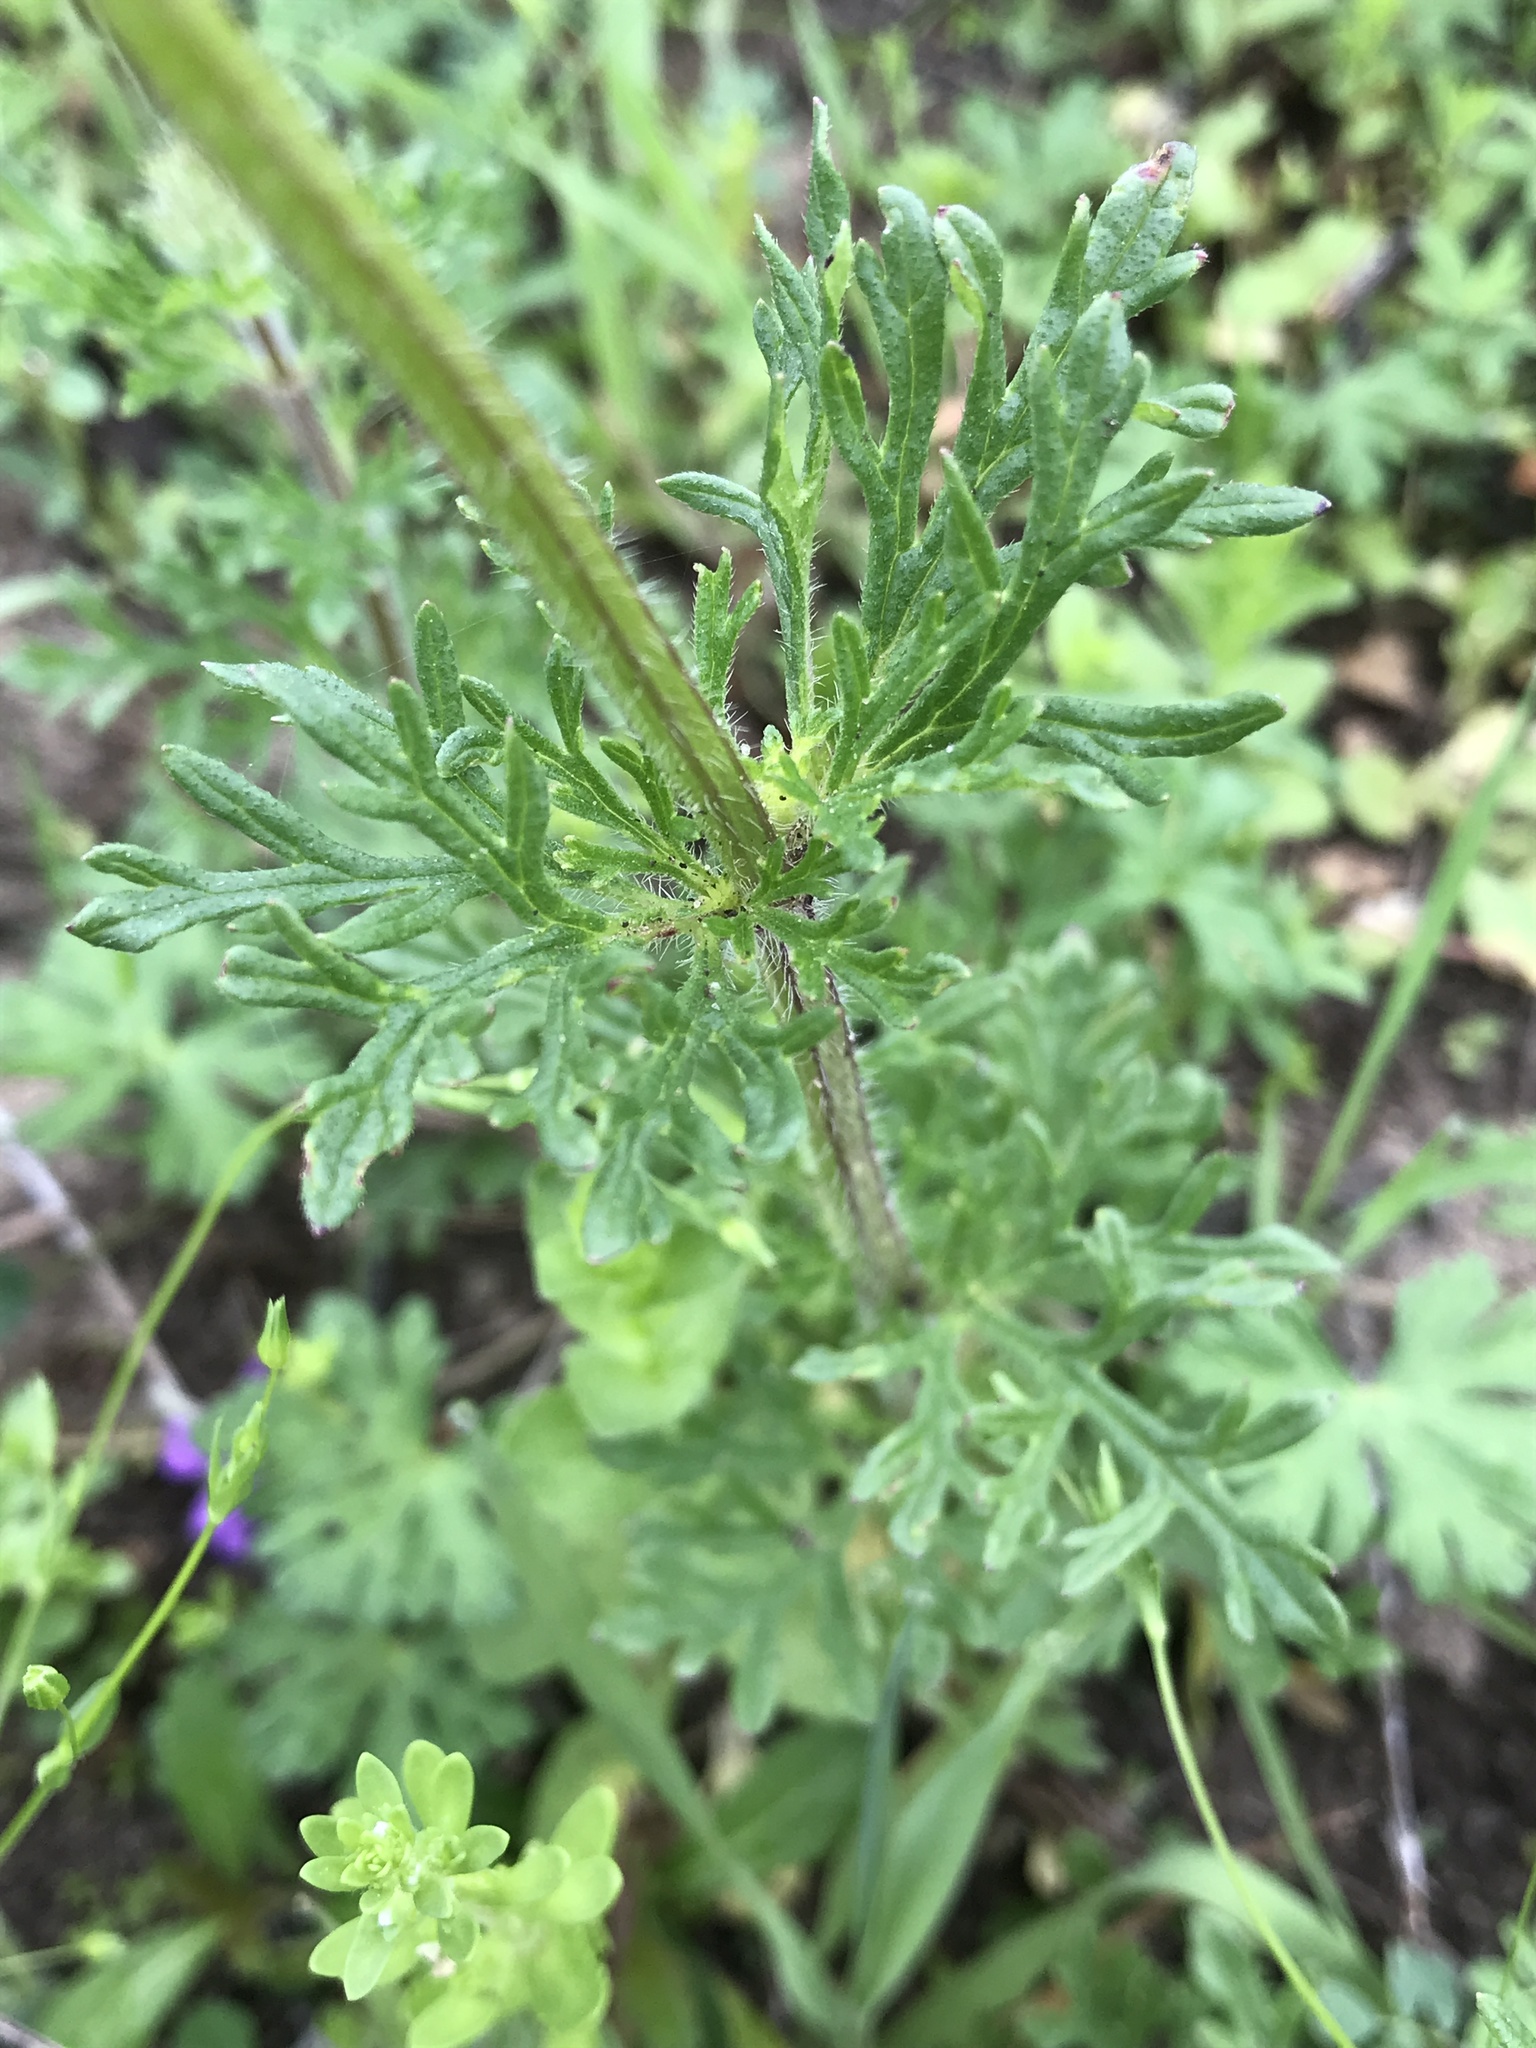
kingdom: Plantae
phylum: Tracheophyta
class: Magnoliopsida
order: Lamiales
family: Verbenaceae
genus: Verbena
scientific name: Verbena bipinnatifida
